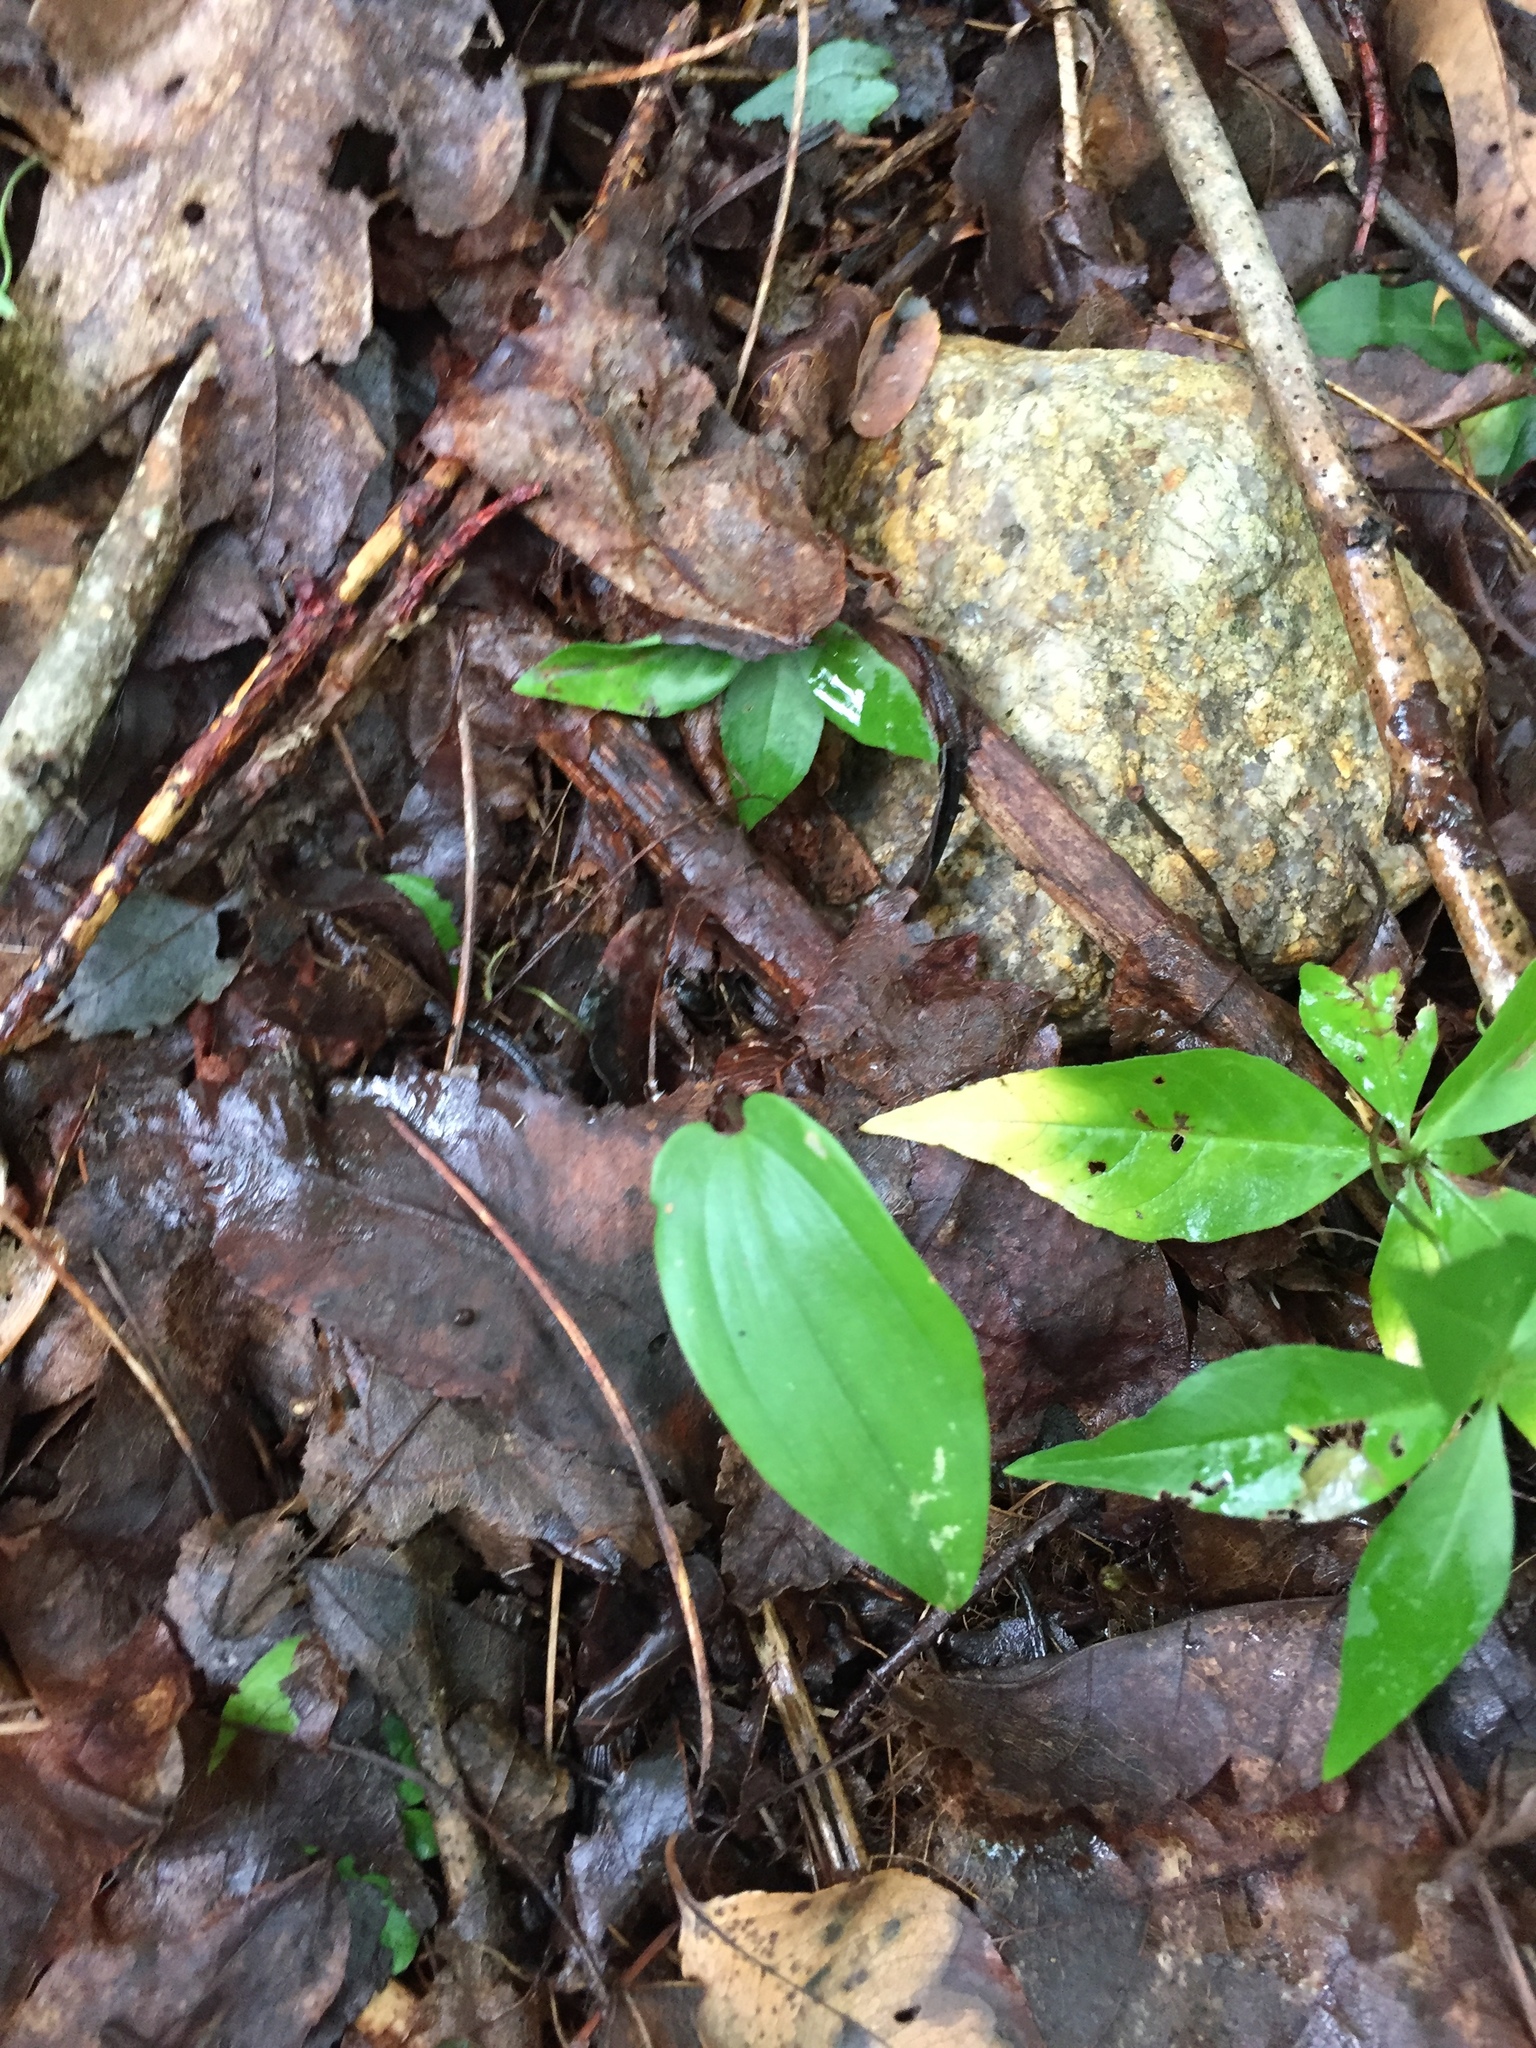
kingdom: Plantae
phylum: Tracheophyta
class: Liliopsida
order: Asparagales
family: Asparagaceae
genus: Maianthemum
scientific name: Maianthemum canadense
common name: False lily-of-the-valley
